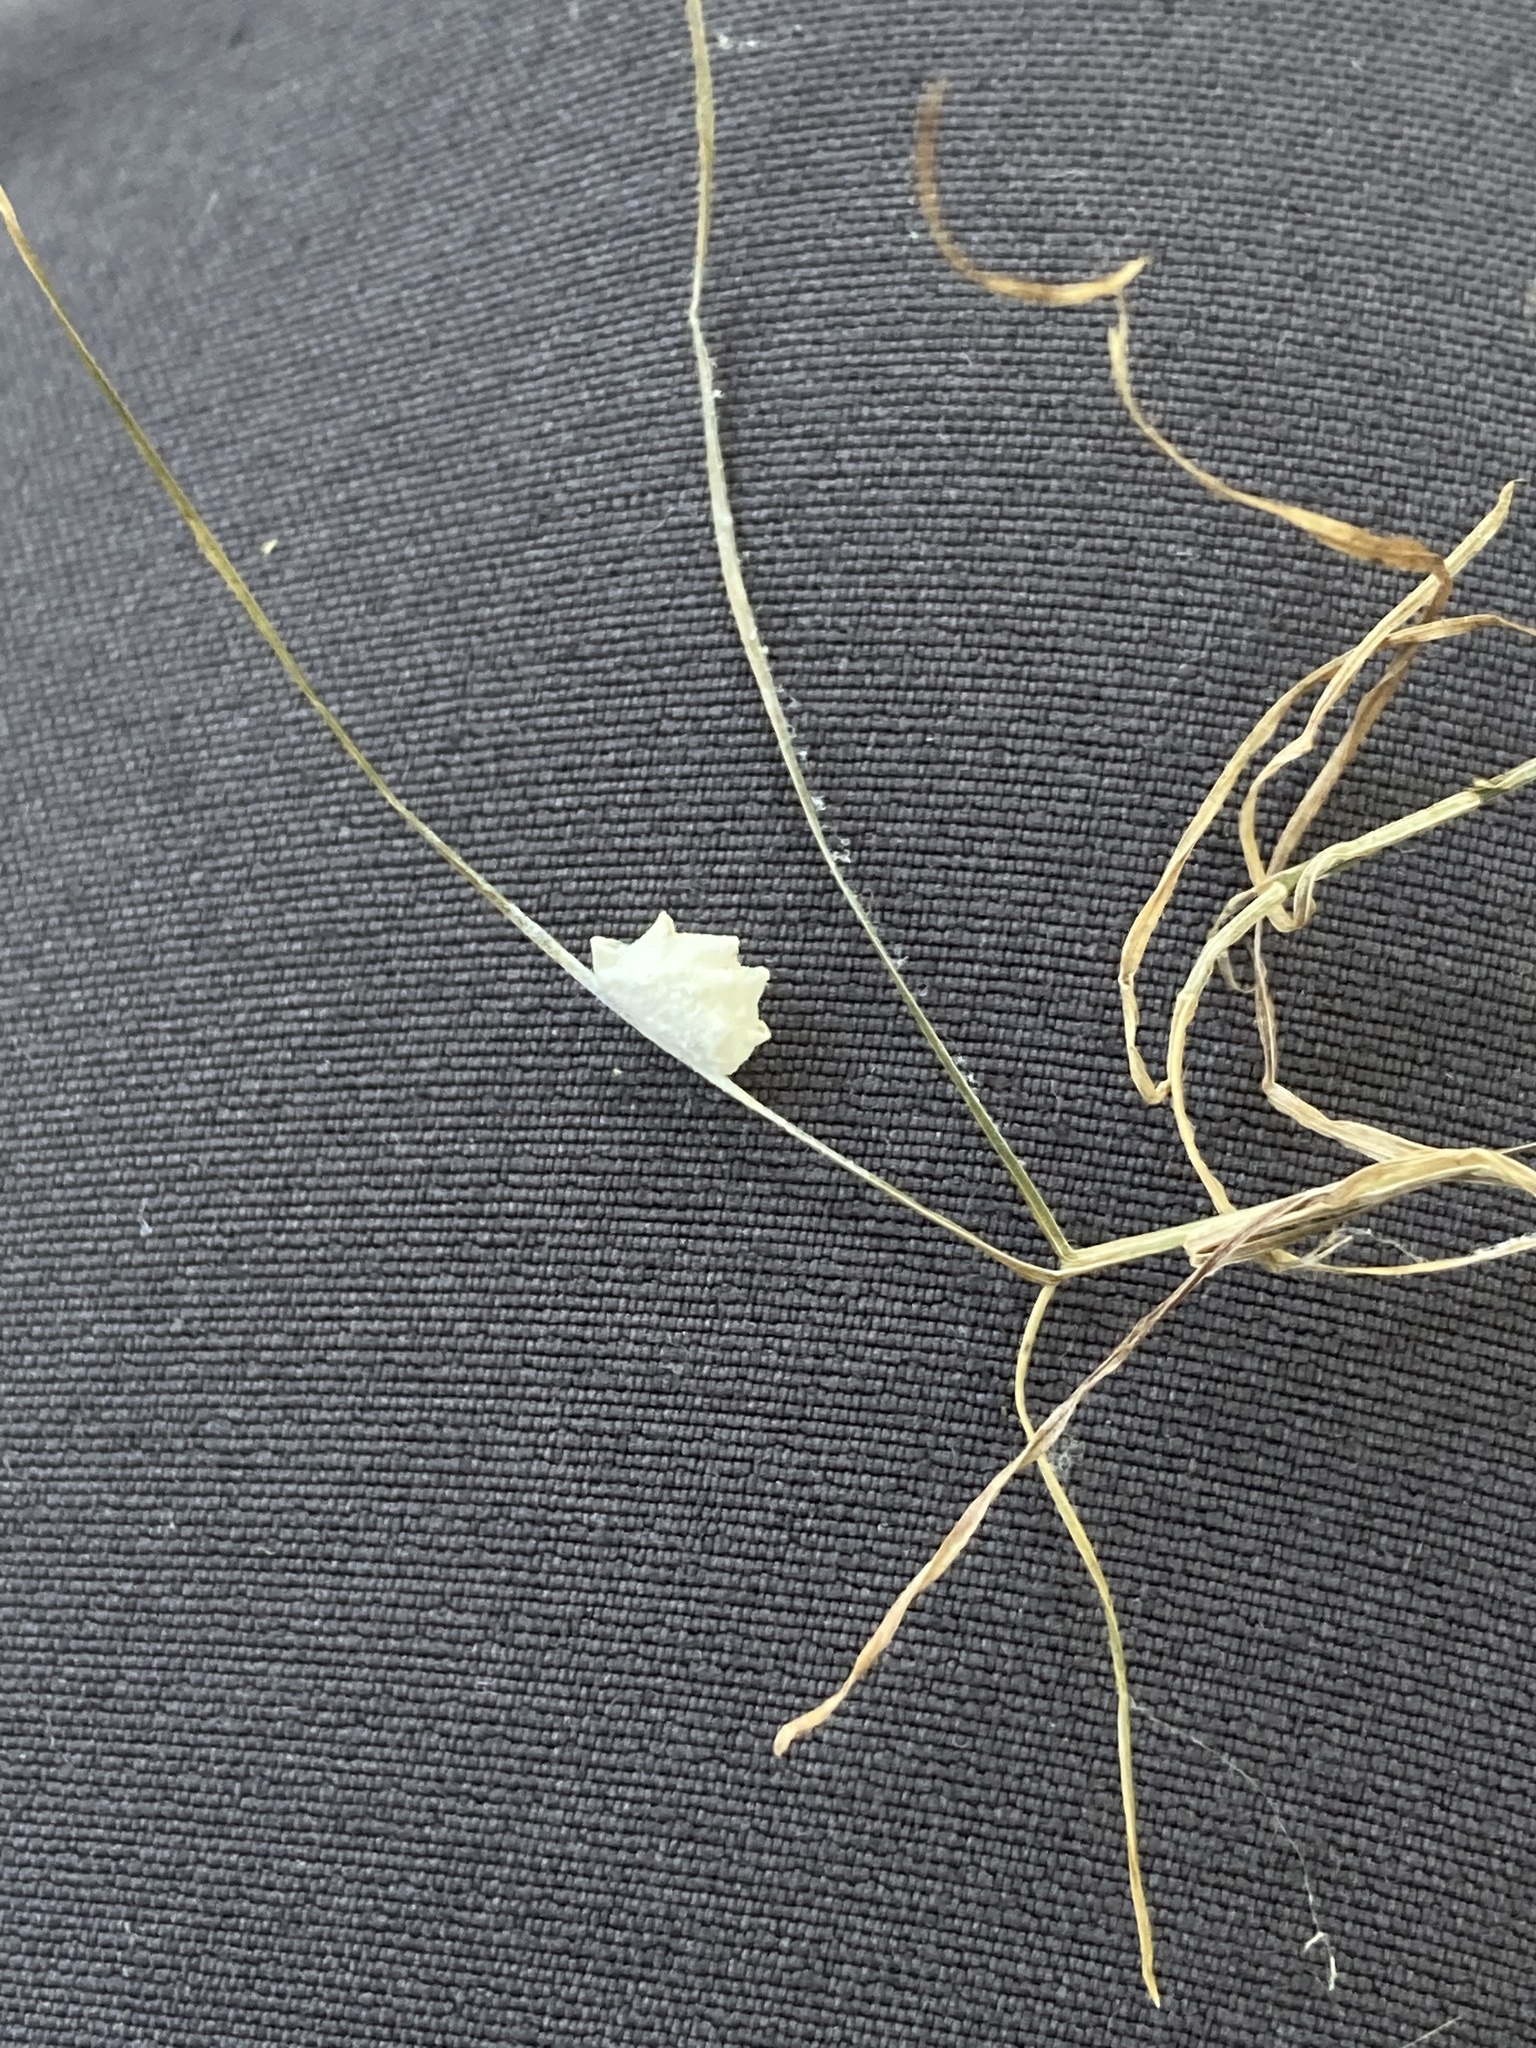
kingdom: Animalia
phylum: Arthropoda
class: Insecta
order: Lepidoptera
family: Epipyropidae
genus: Fulgoraecia
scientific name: Fulgoraecia exigua
